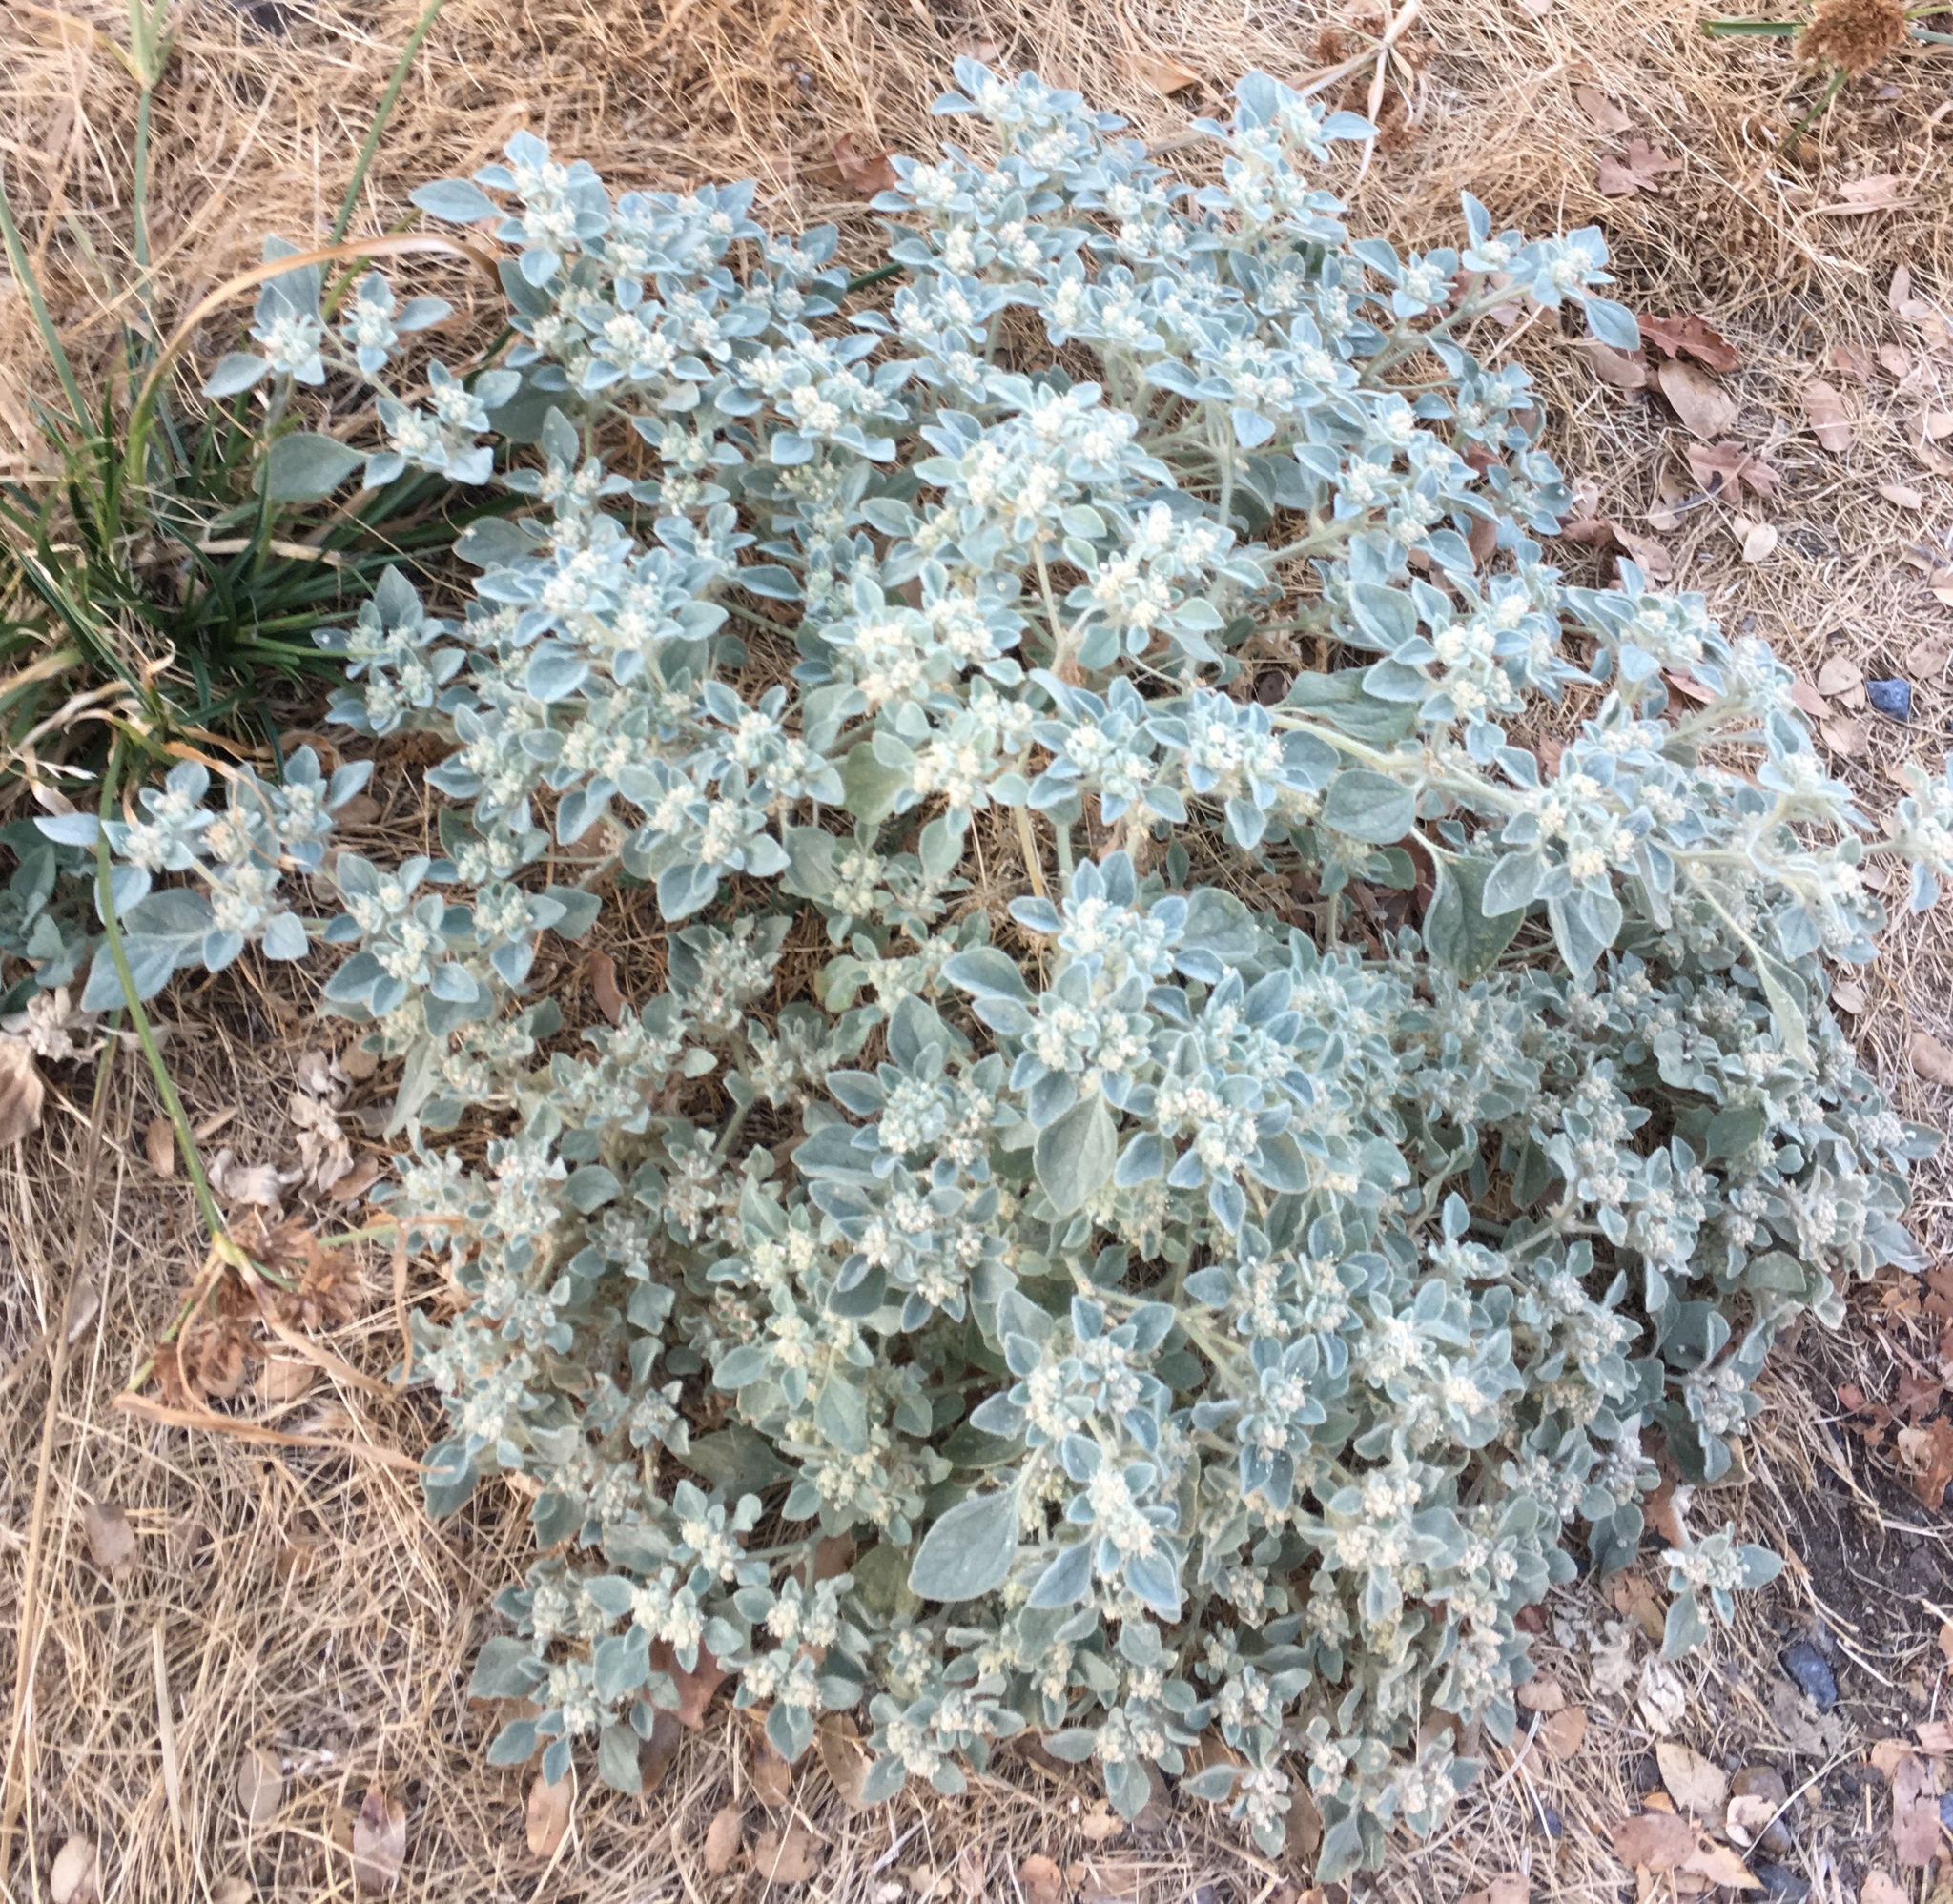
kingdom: Plantae
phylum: Tracheophyta
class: Magnoliopsida
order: Malpighiales
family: Euphorbiaceae
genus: Croton
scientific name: Croton setiger
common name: Dove weed
